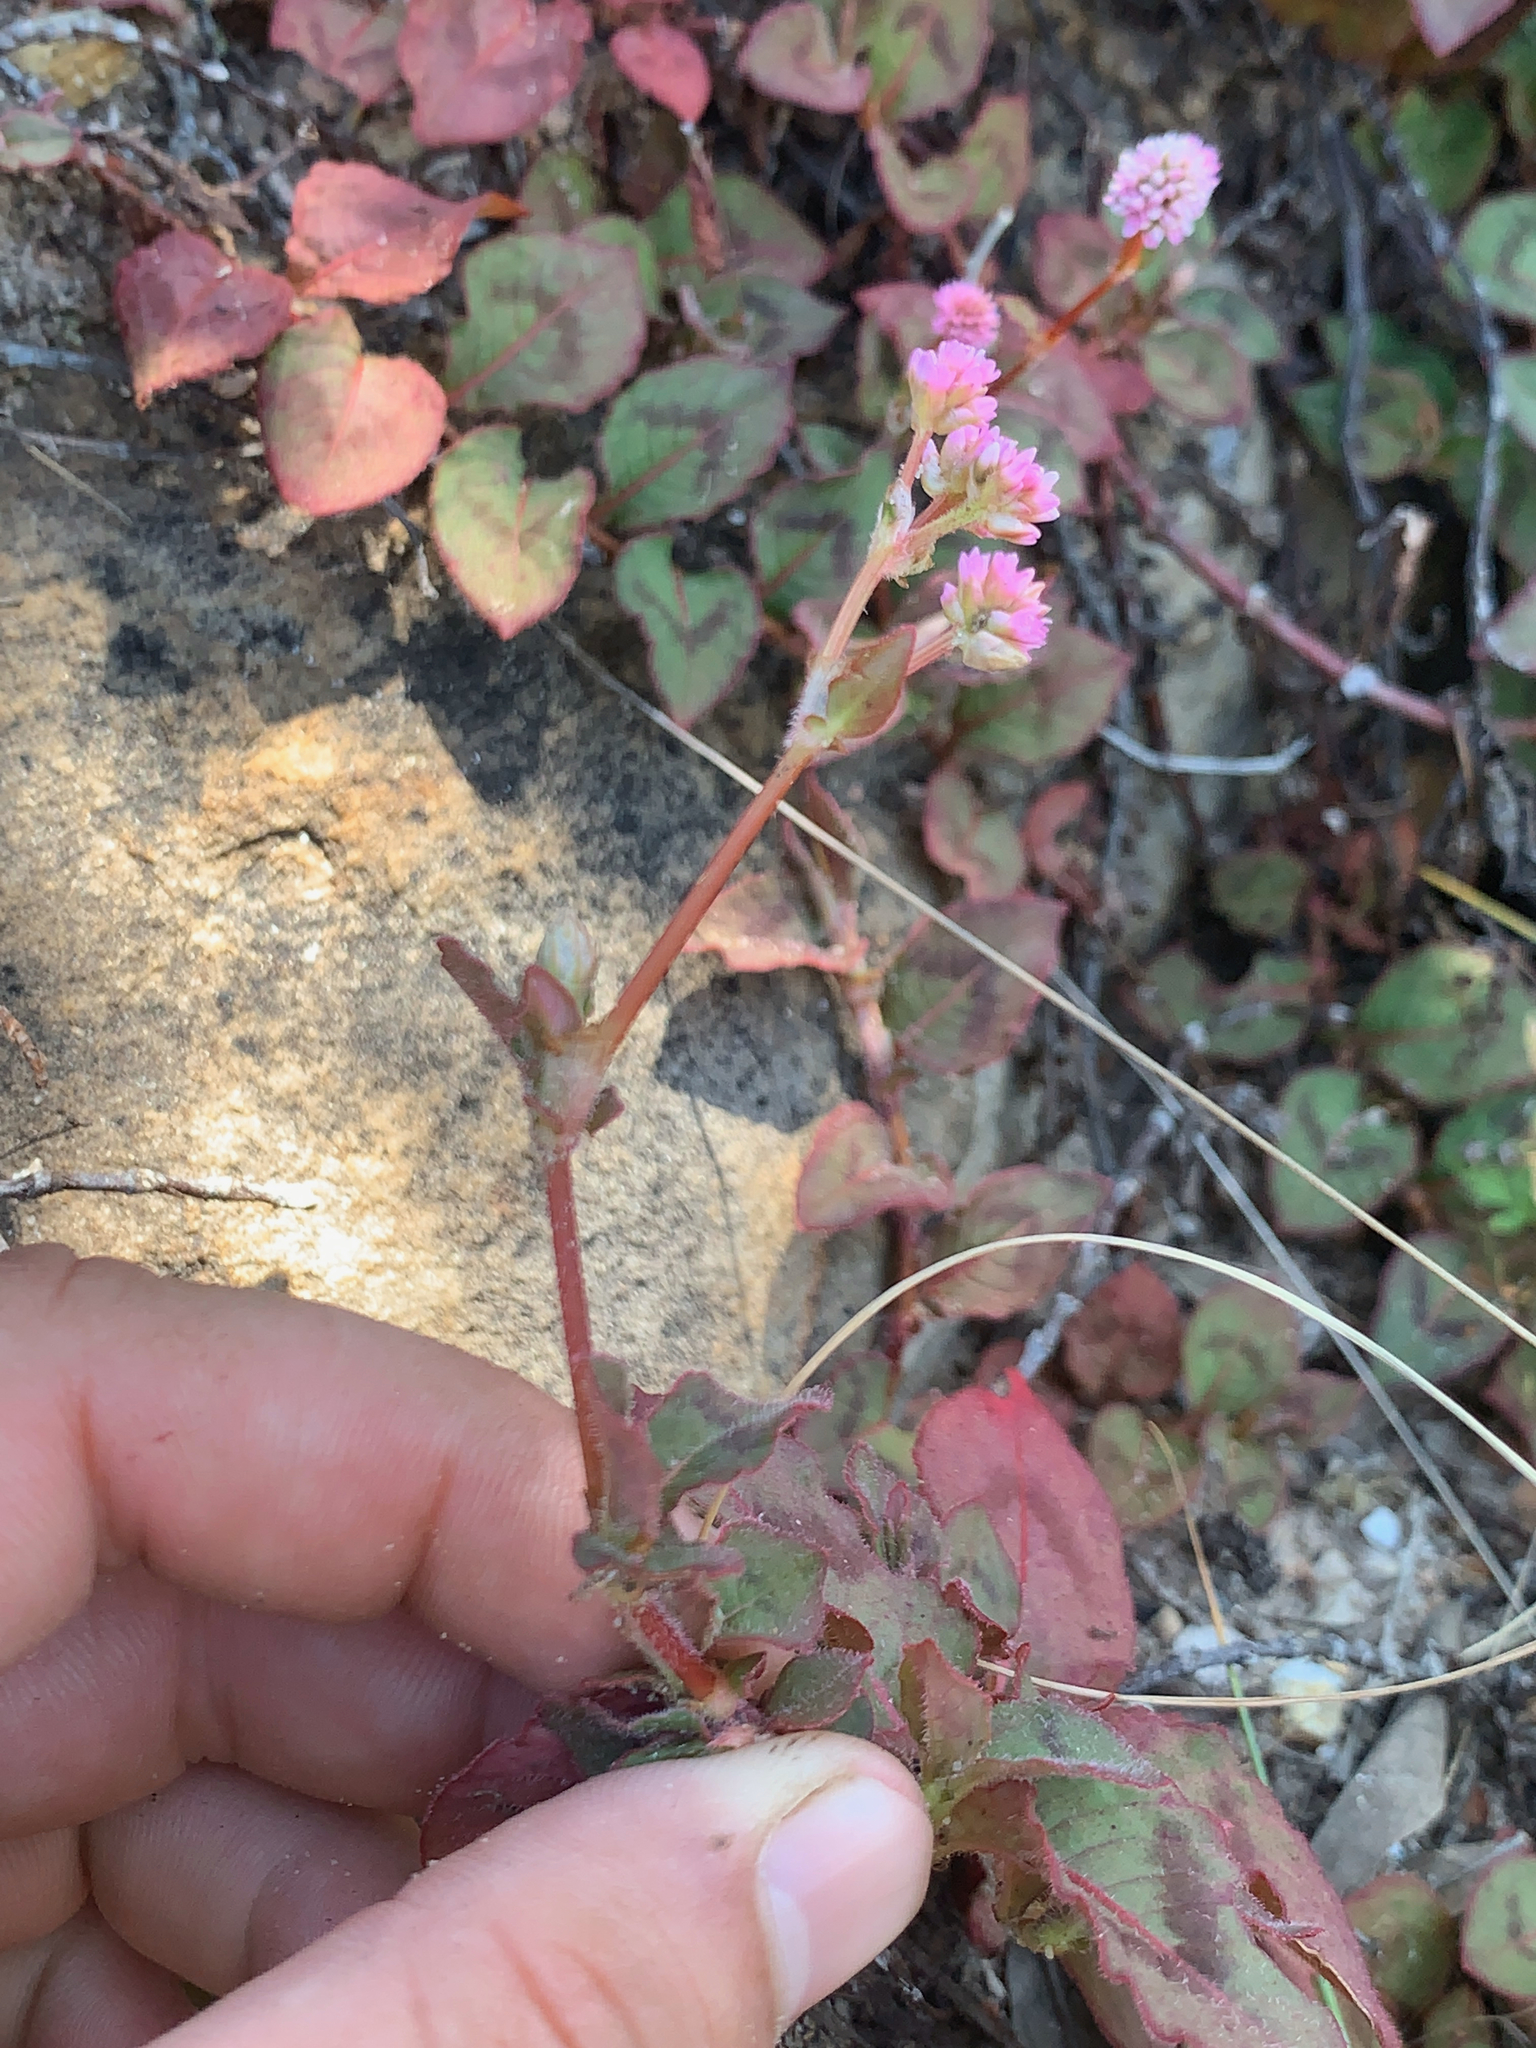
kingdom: Plantae
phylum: Tracheophyta
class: Magnoliopsida
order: Caryophyllales
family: Polygonaceae
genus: Persicaria
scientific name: Persicaria capitata
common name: Pinkhead smartweed
